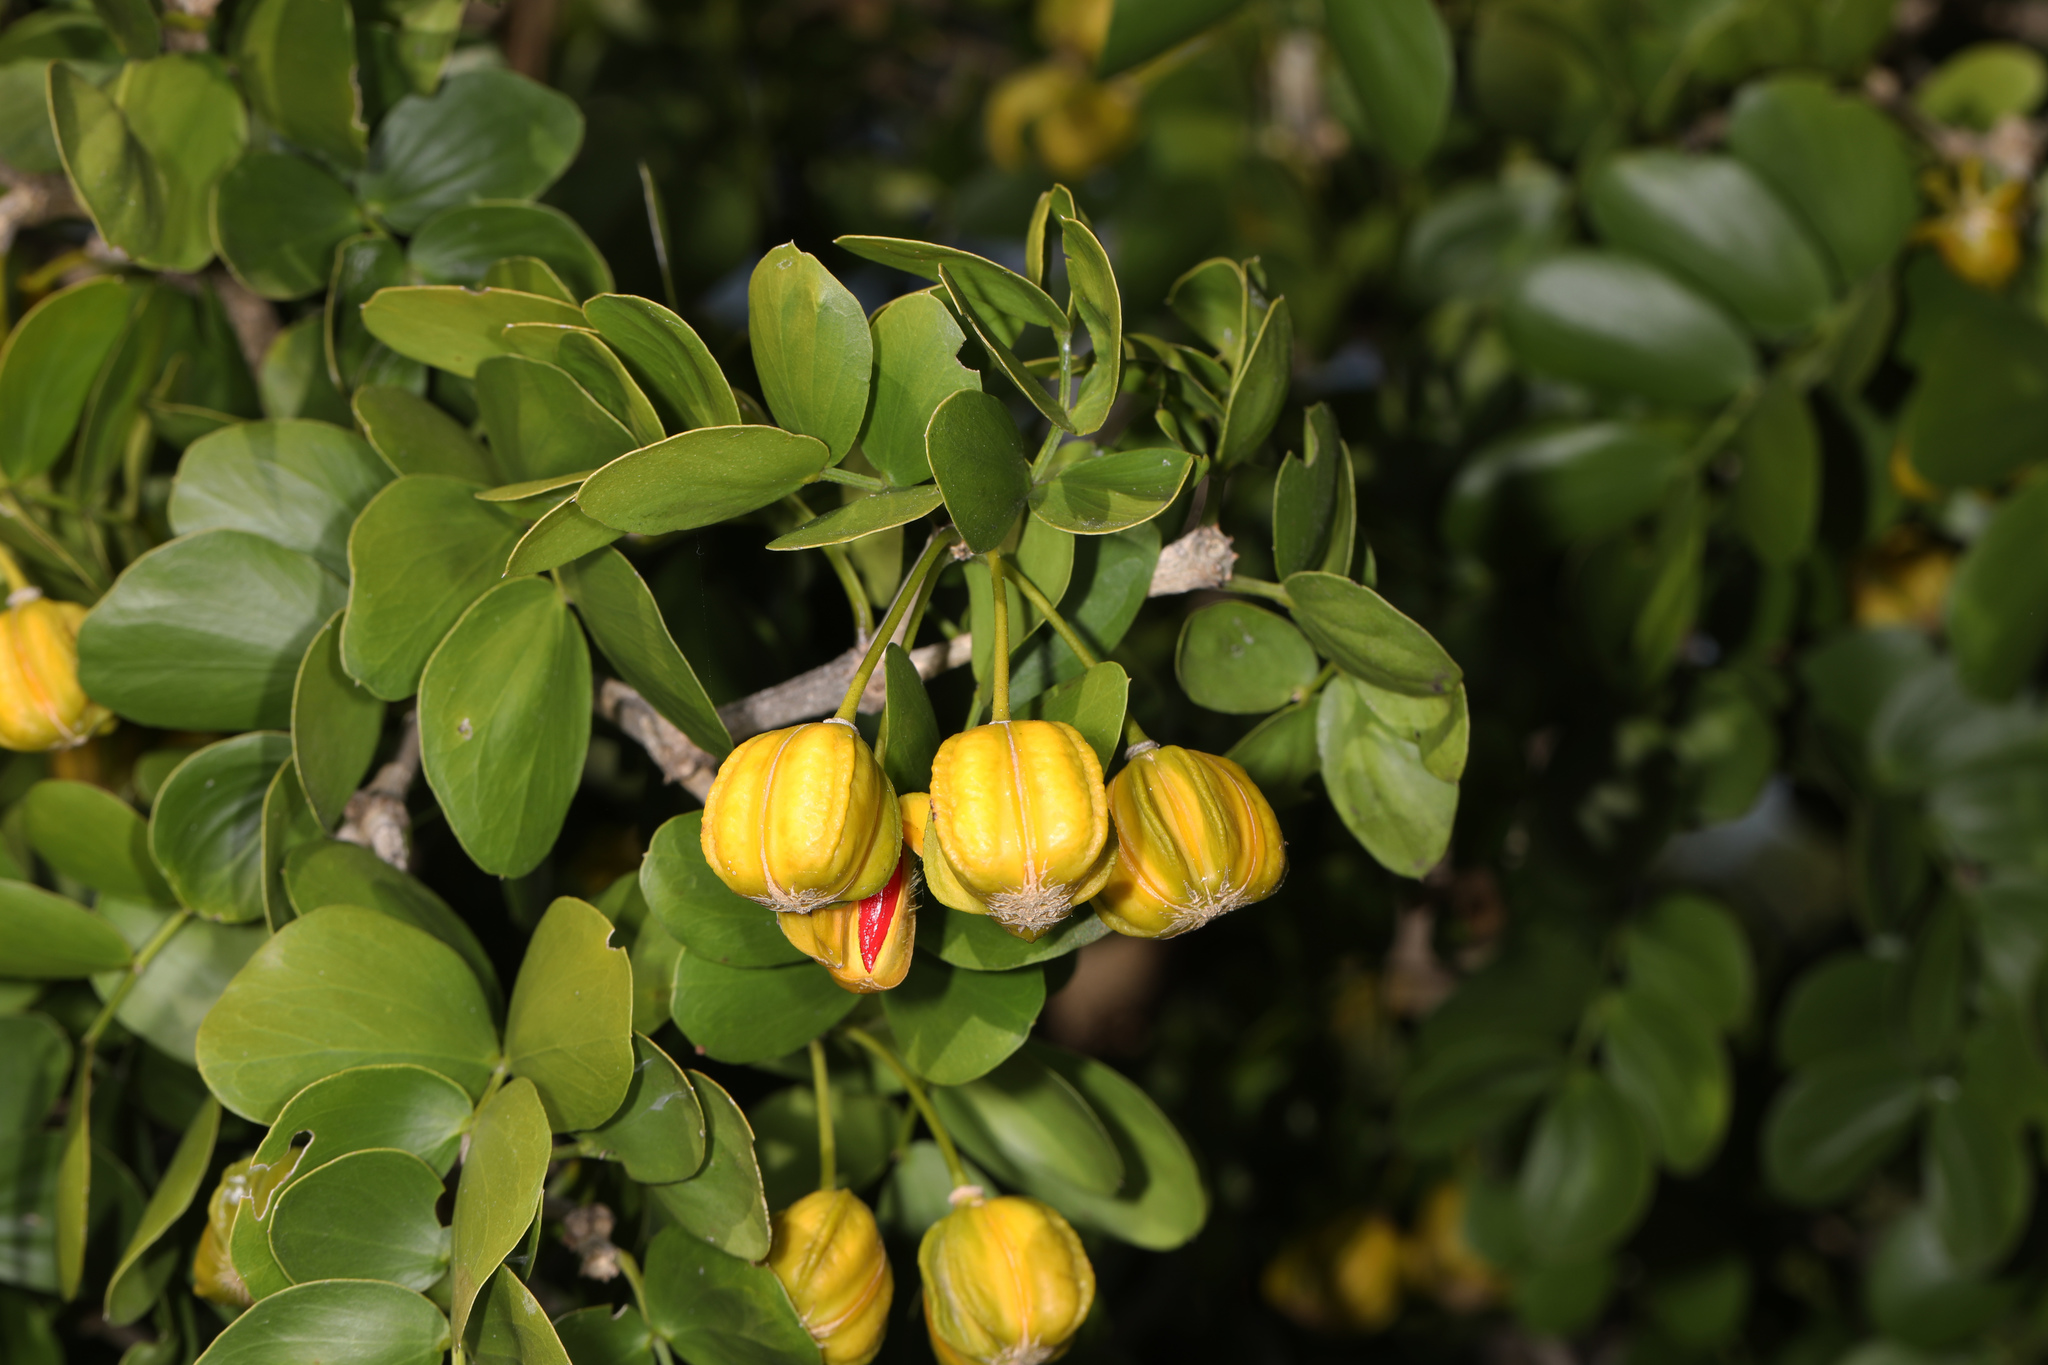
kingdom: Plantae
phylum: Tracheophyta
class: Magnoliopsida
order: Zygophyllales
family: Zygophyllaceae
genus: Guaiacum
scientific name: Guaiacum sanctum
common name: Holywood
